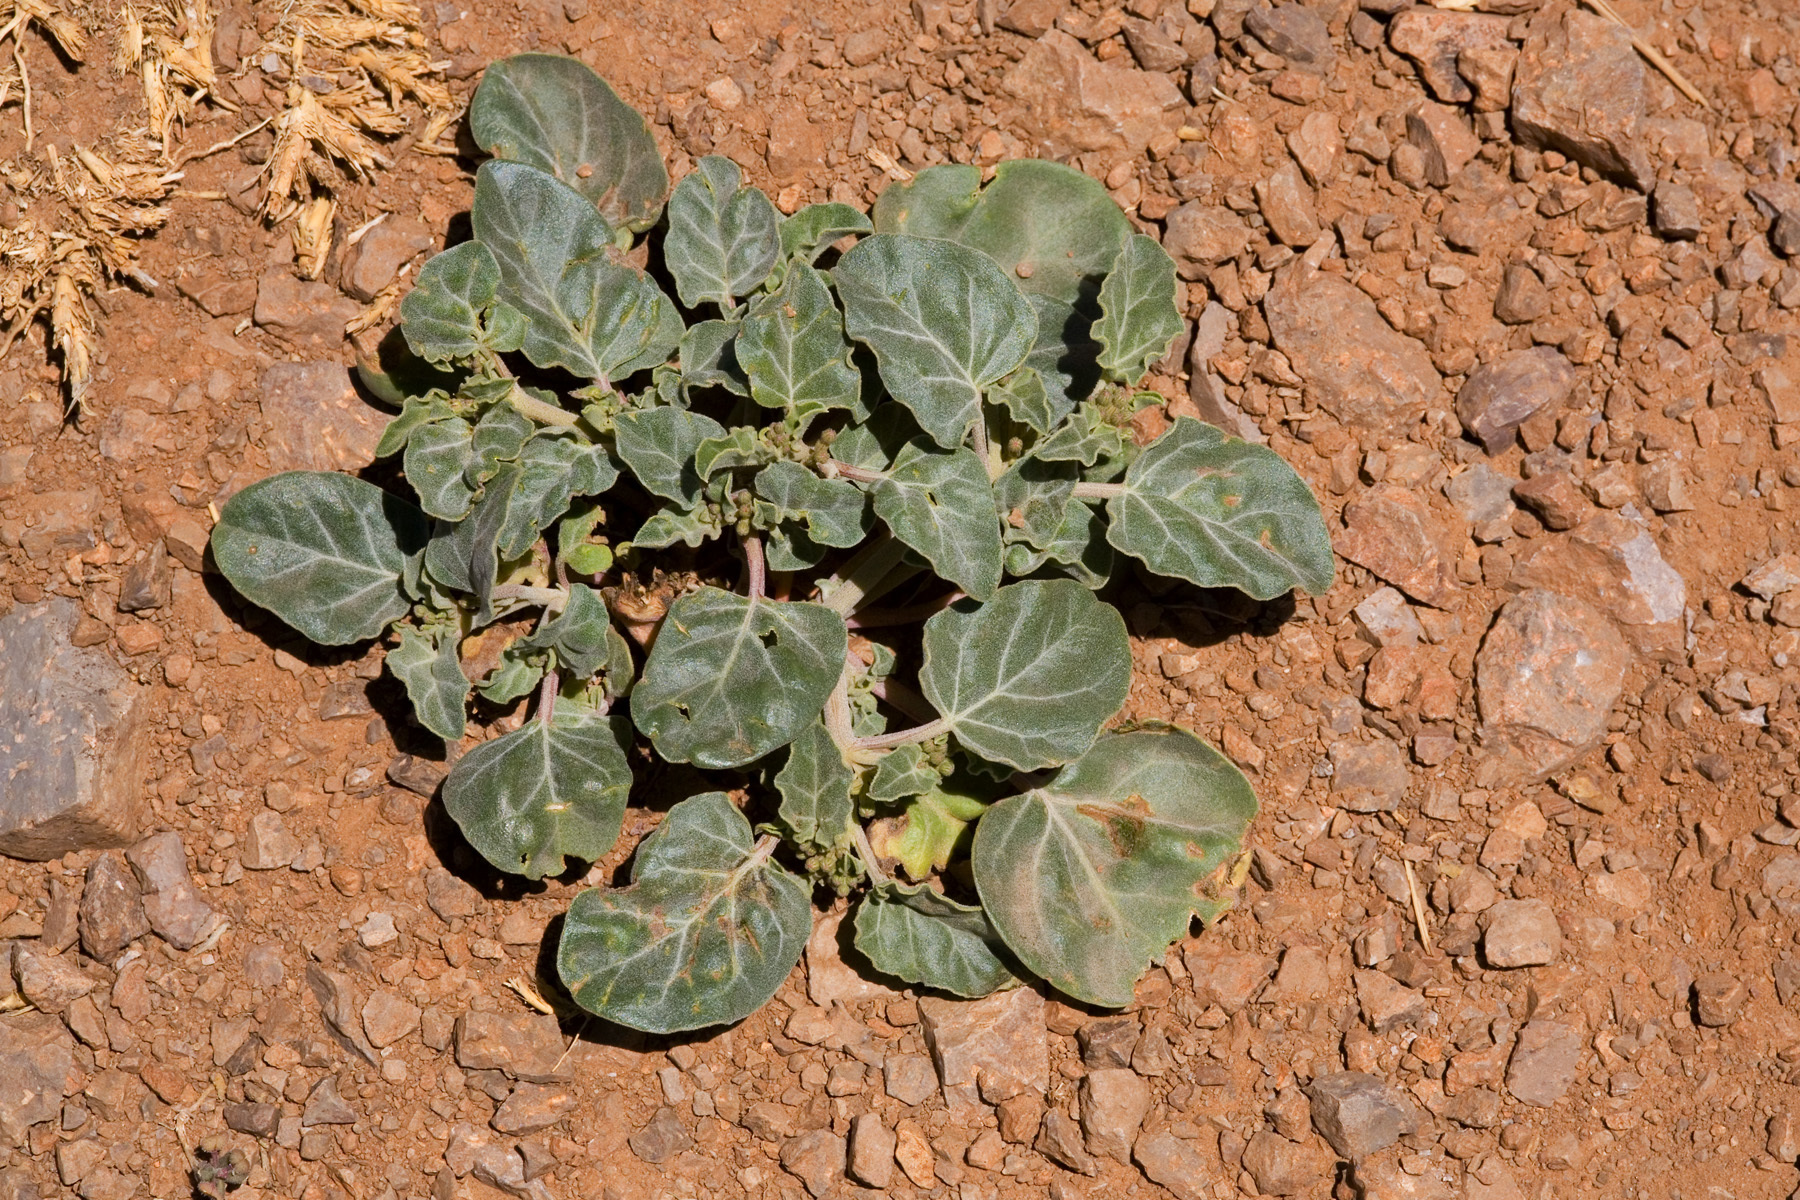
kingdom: Plantae
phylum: Tracheophyta
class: Magnoliopsida
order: Caryophyllales
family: Nyctaginaceae
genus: Acleisanthes
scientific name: Acleisanthes chenopodioides
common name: Goosefoot moonpod
